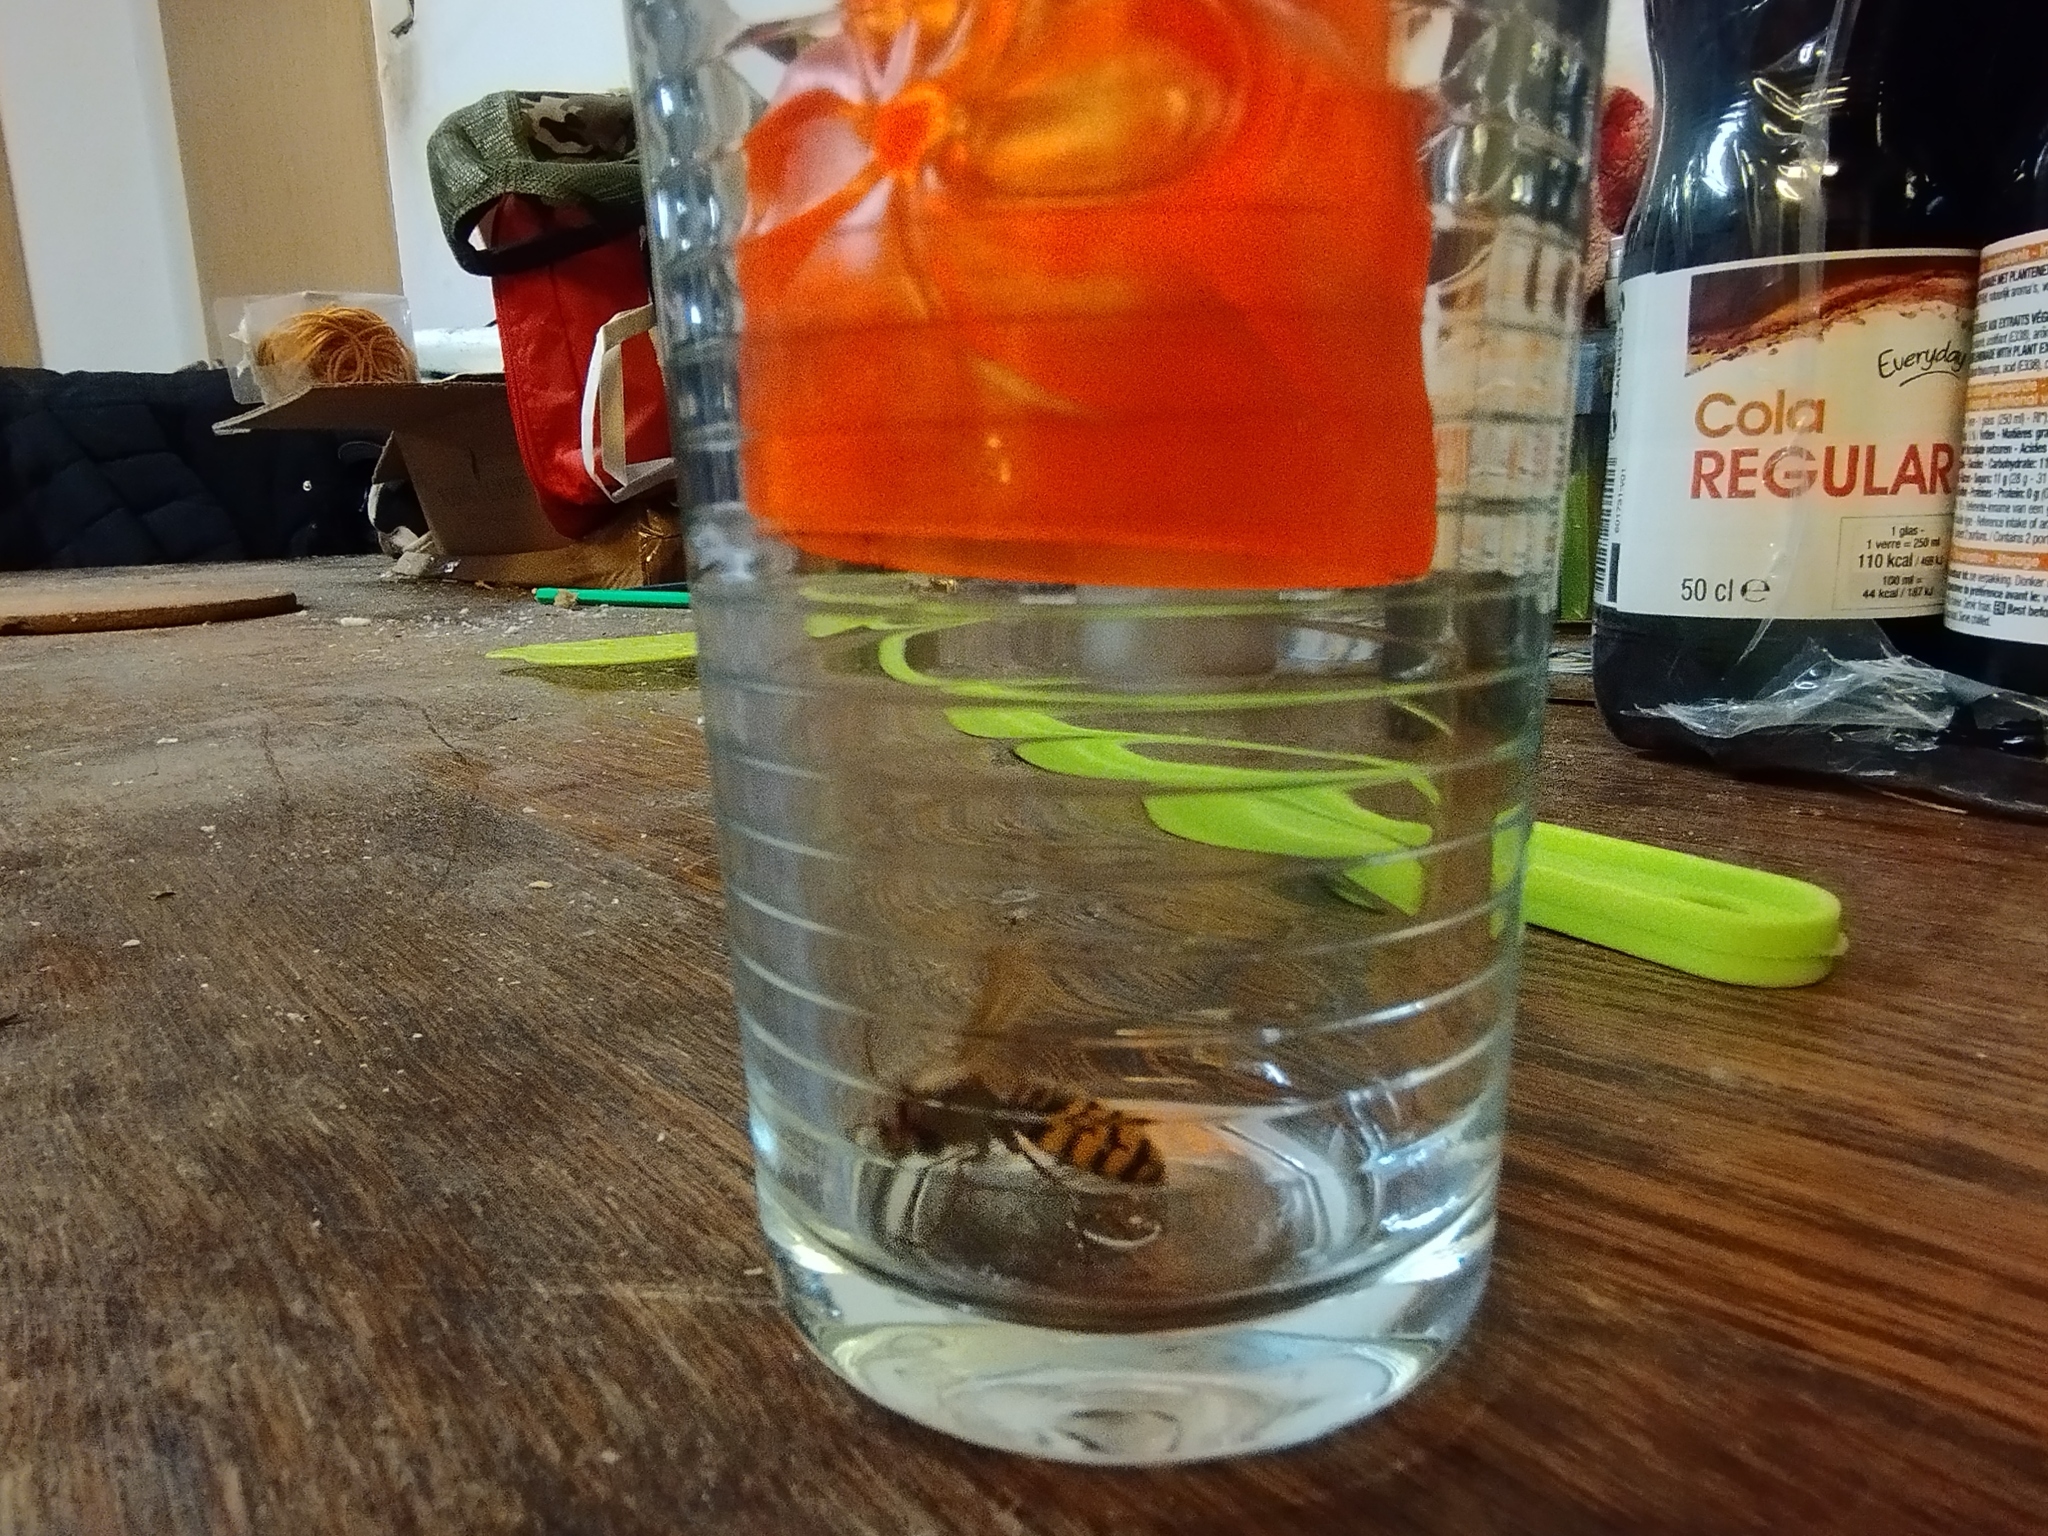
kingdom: Animalia
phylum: Arthropoda
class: Insecta
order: Hymenoptera
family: Vespidae
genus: Vespa
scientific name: Vespa crabro
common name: Hornet
